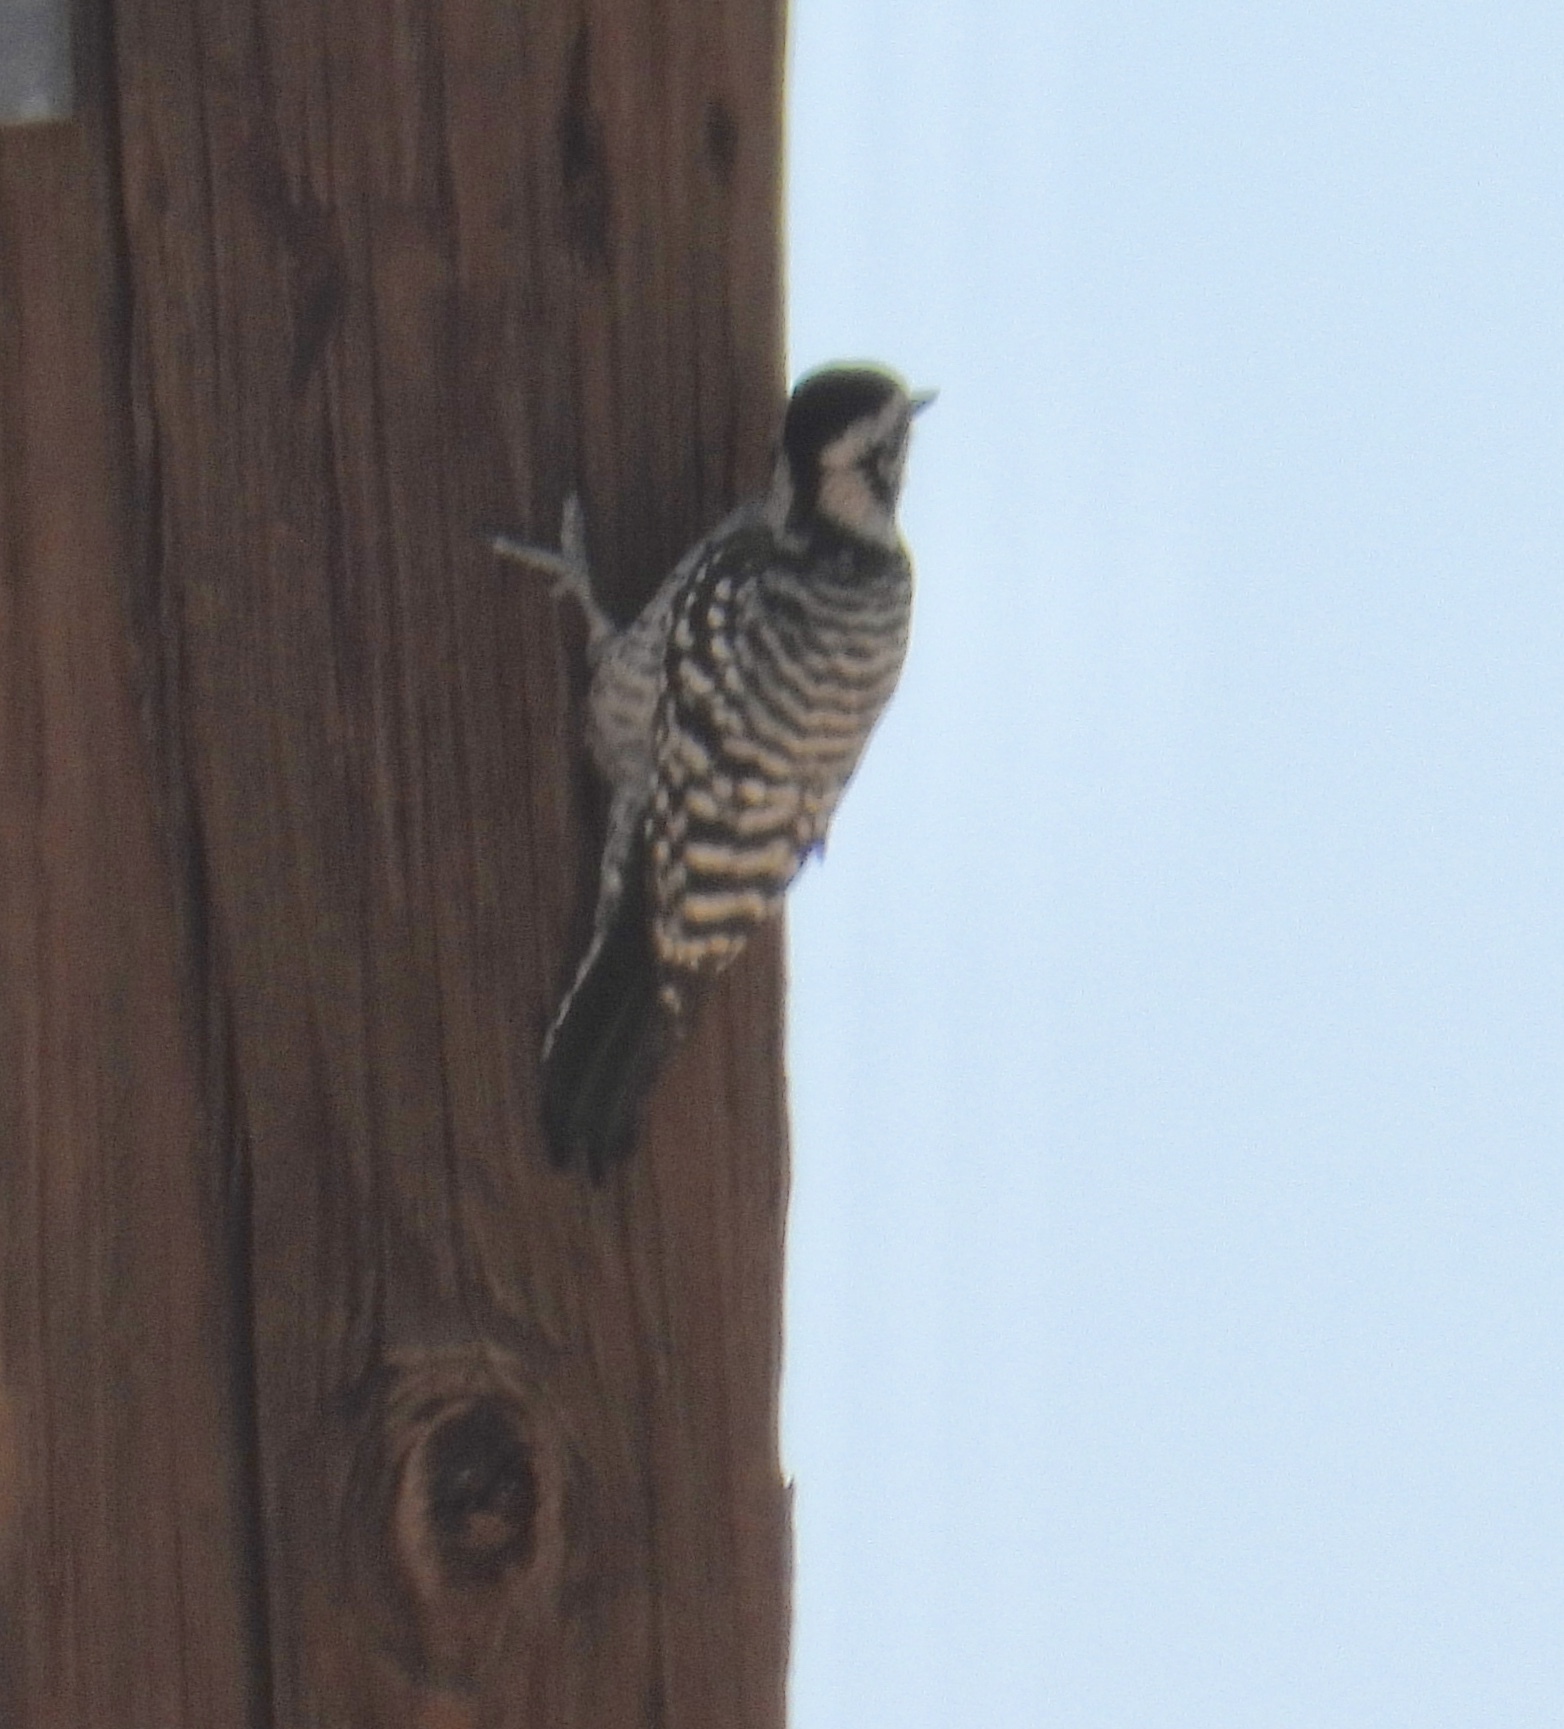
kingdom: Animalia
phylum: Chordata
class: Aves
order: Piciformes
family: Picidae
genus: Dryobates
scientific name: Dryobates scalaris
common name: Ladder-backed woodpecker
